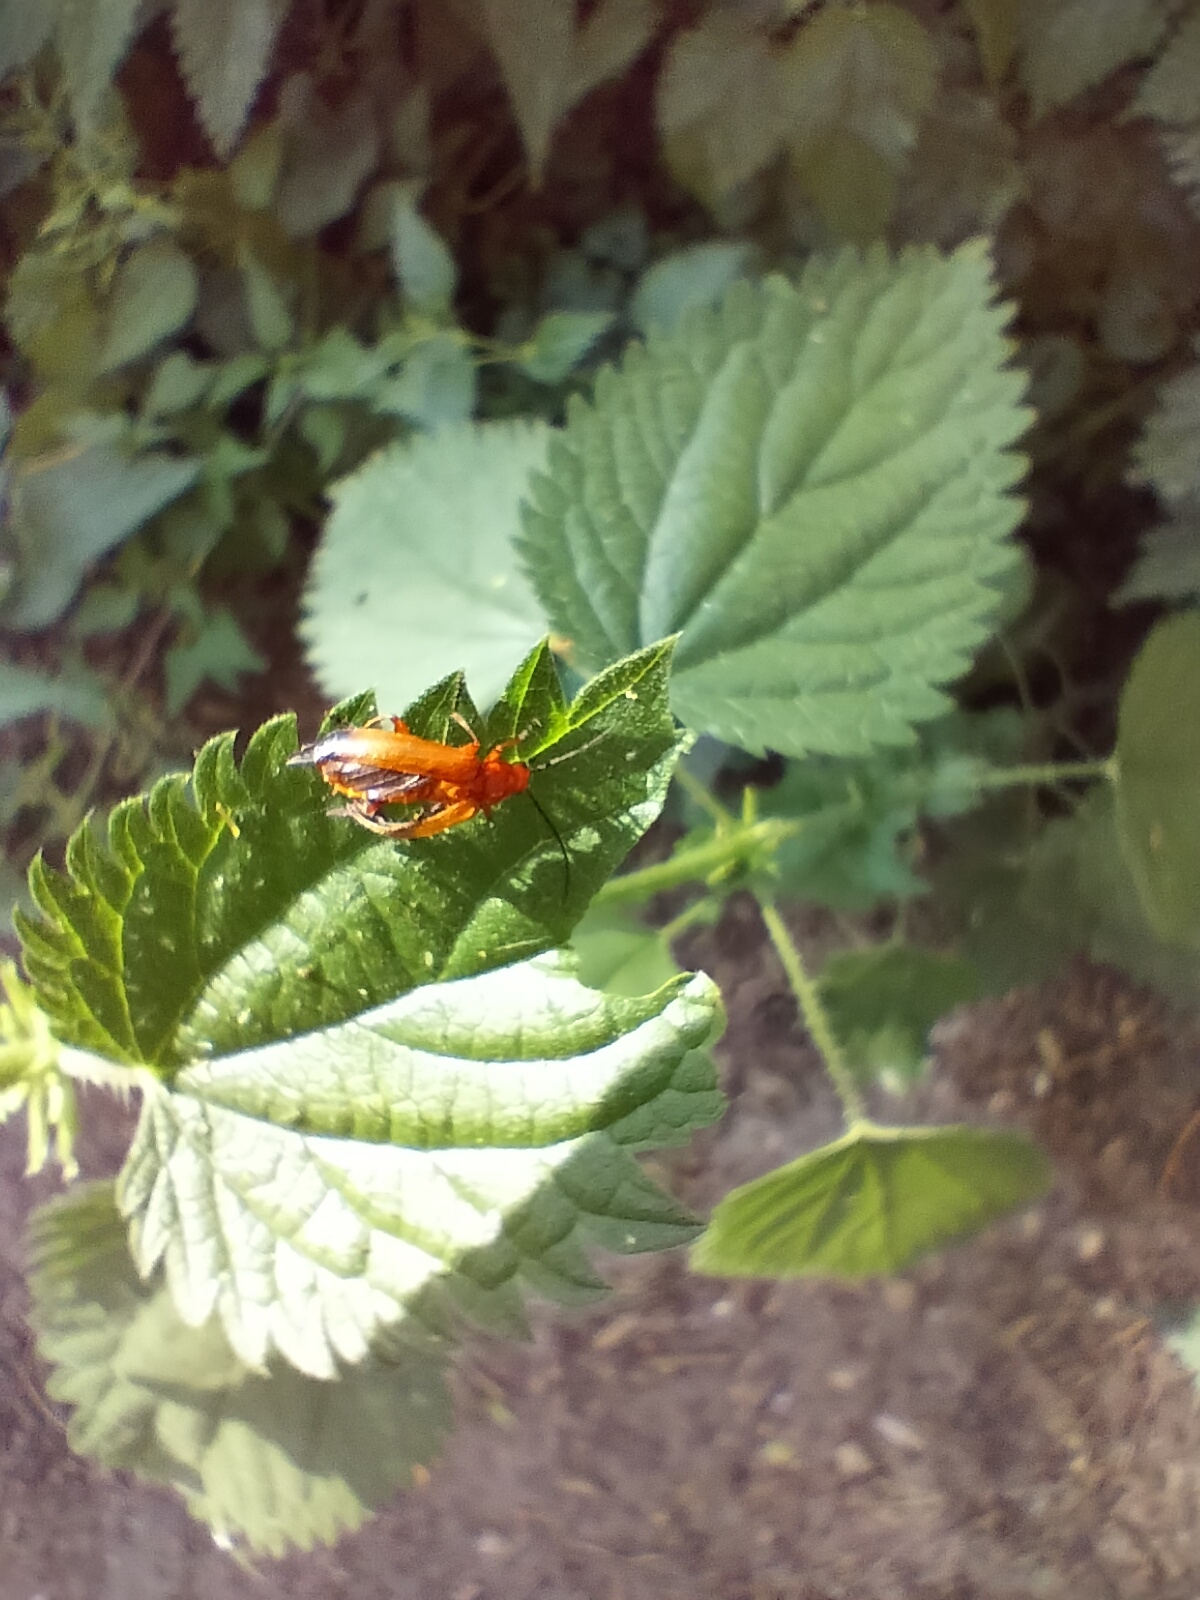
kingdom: Animalia
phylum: Arthropoda
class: Insecta
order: Coleoptera
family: Cantharidae
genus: Rhagonycha
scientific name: Rhagonycha fulva
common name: Common red soldier beetle
